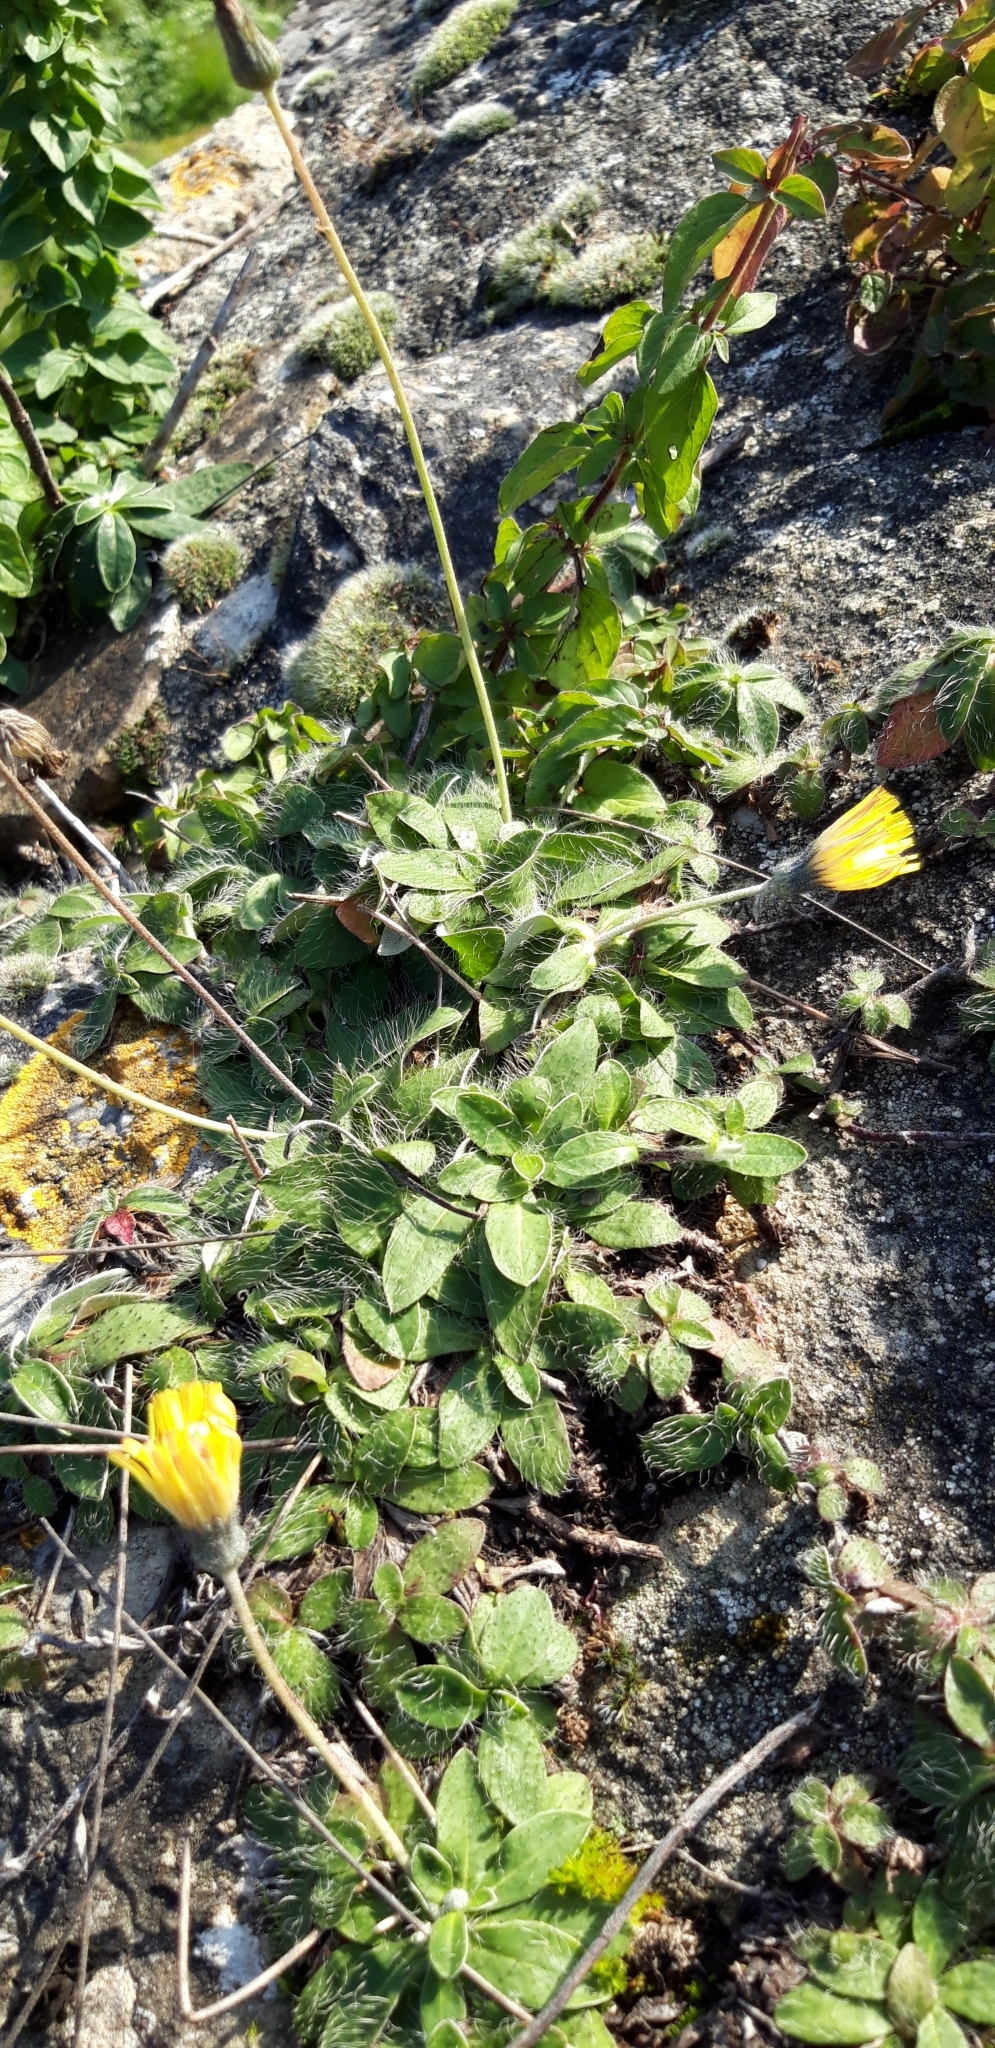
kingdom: Plantae
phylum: Tracheophyta
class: Magnoliopsida
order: Asterales
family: Asteraceae
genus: Pilosella
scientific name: Pilosella officinarum
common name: Mouse-ear hawkweed
